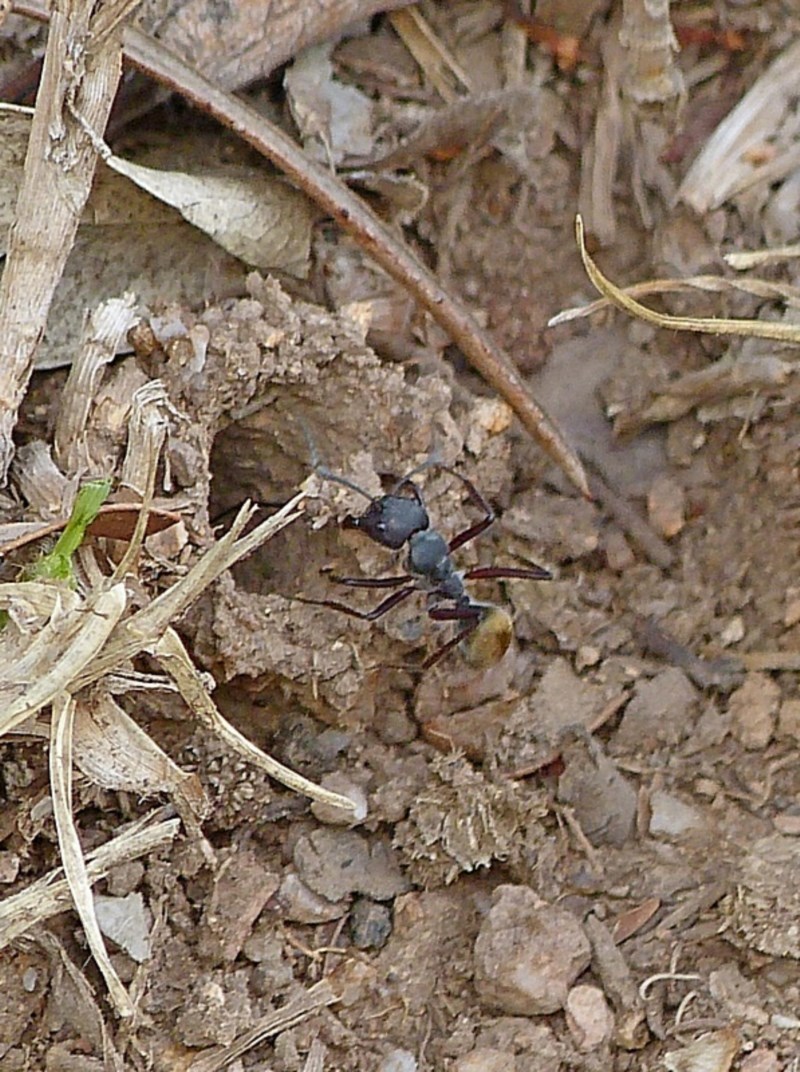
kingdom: Animalia
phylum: Arthropoda
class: Insecta
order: Hymenoptera
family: Formicidae
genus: Camponotus
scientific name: Camponotus suffusus
